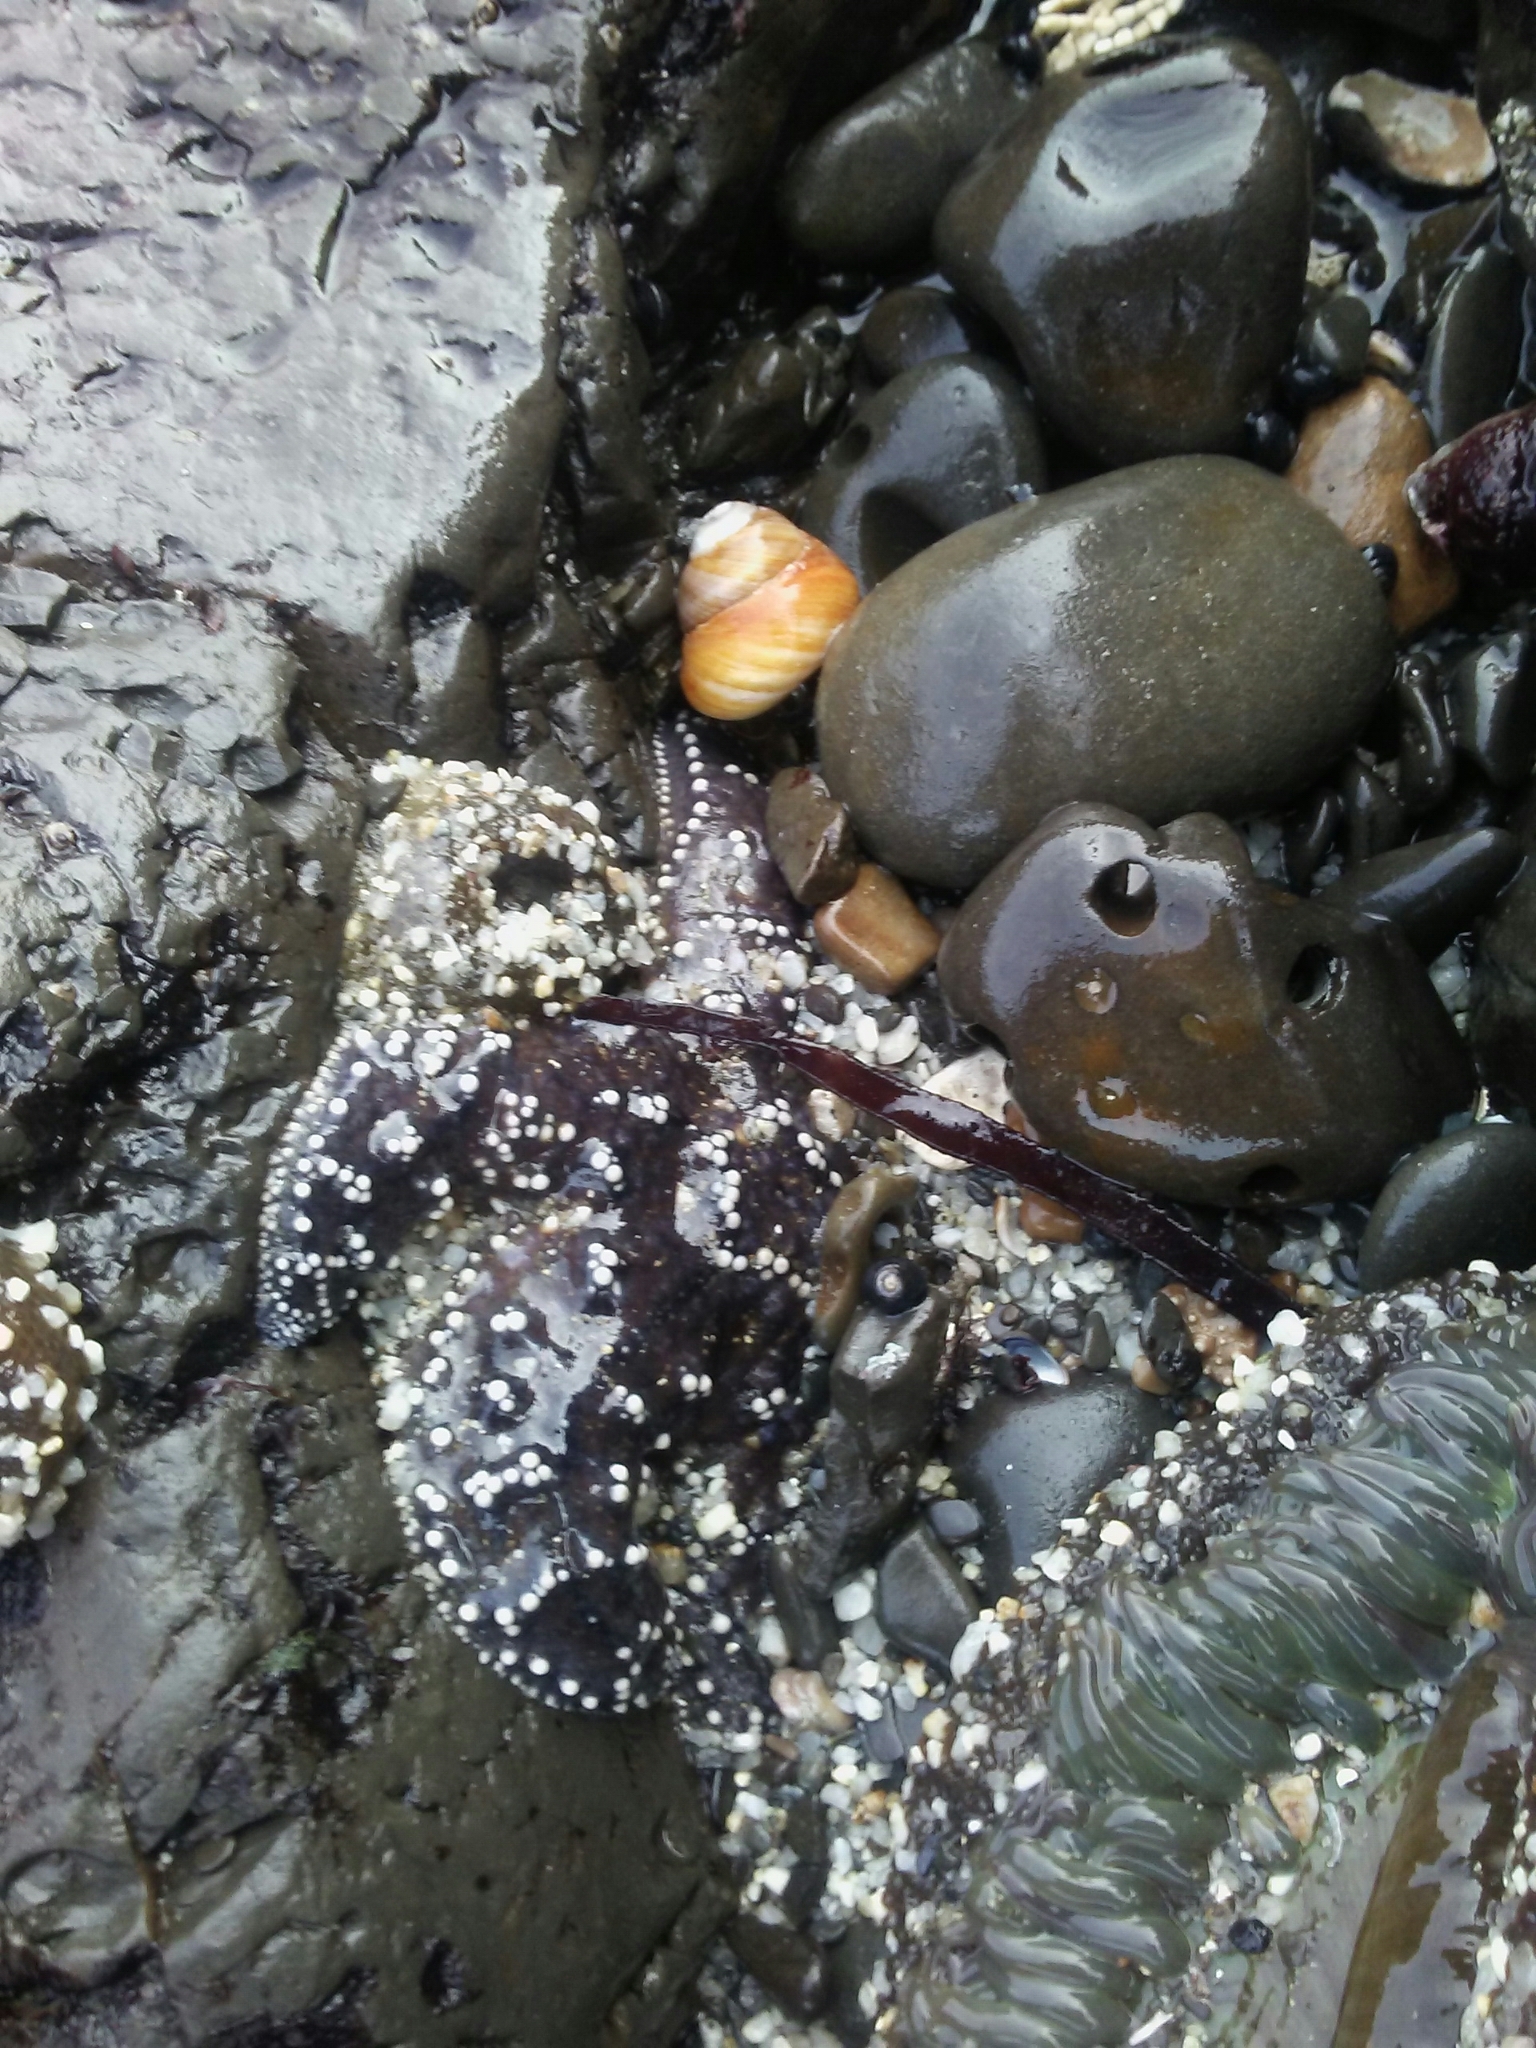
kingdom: Animalia
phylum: Echinodermata
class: Asteroidea
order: Forcipulatida
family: Asteriidae
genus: Pisaster
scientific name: Pisaster ochraceus
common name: Ochre stars
